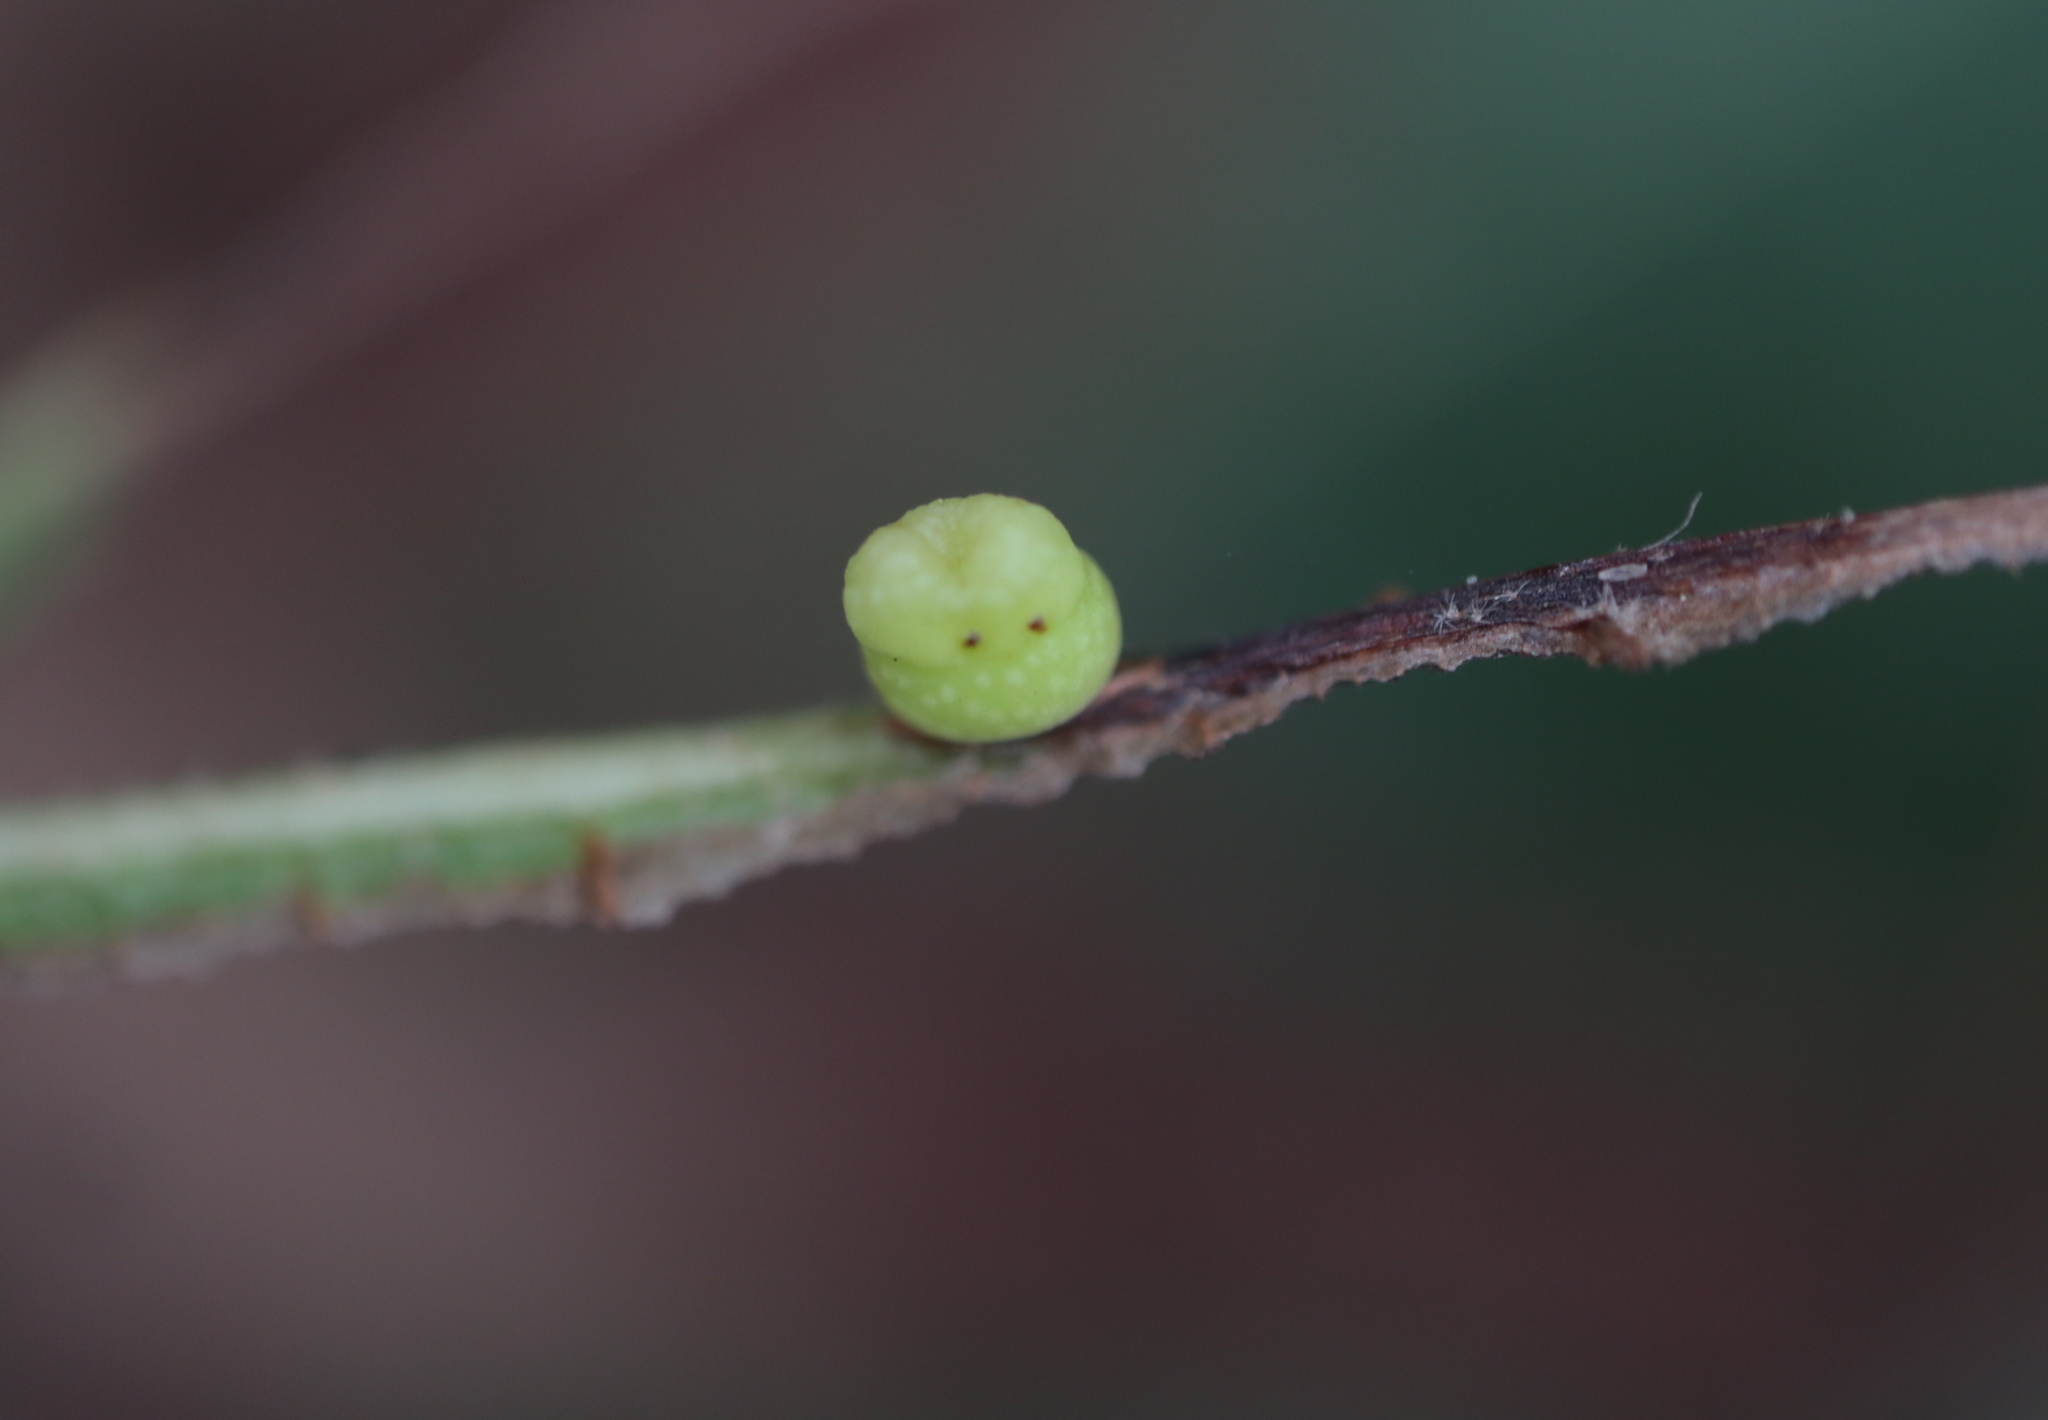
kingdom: Animalia
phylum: Arthropoda
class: Insecta
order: Hymenoptera
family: Cynipidae
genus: Kokkocynips
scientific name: Kokkocynips rileyi
